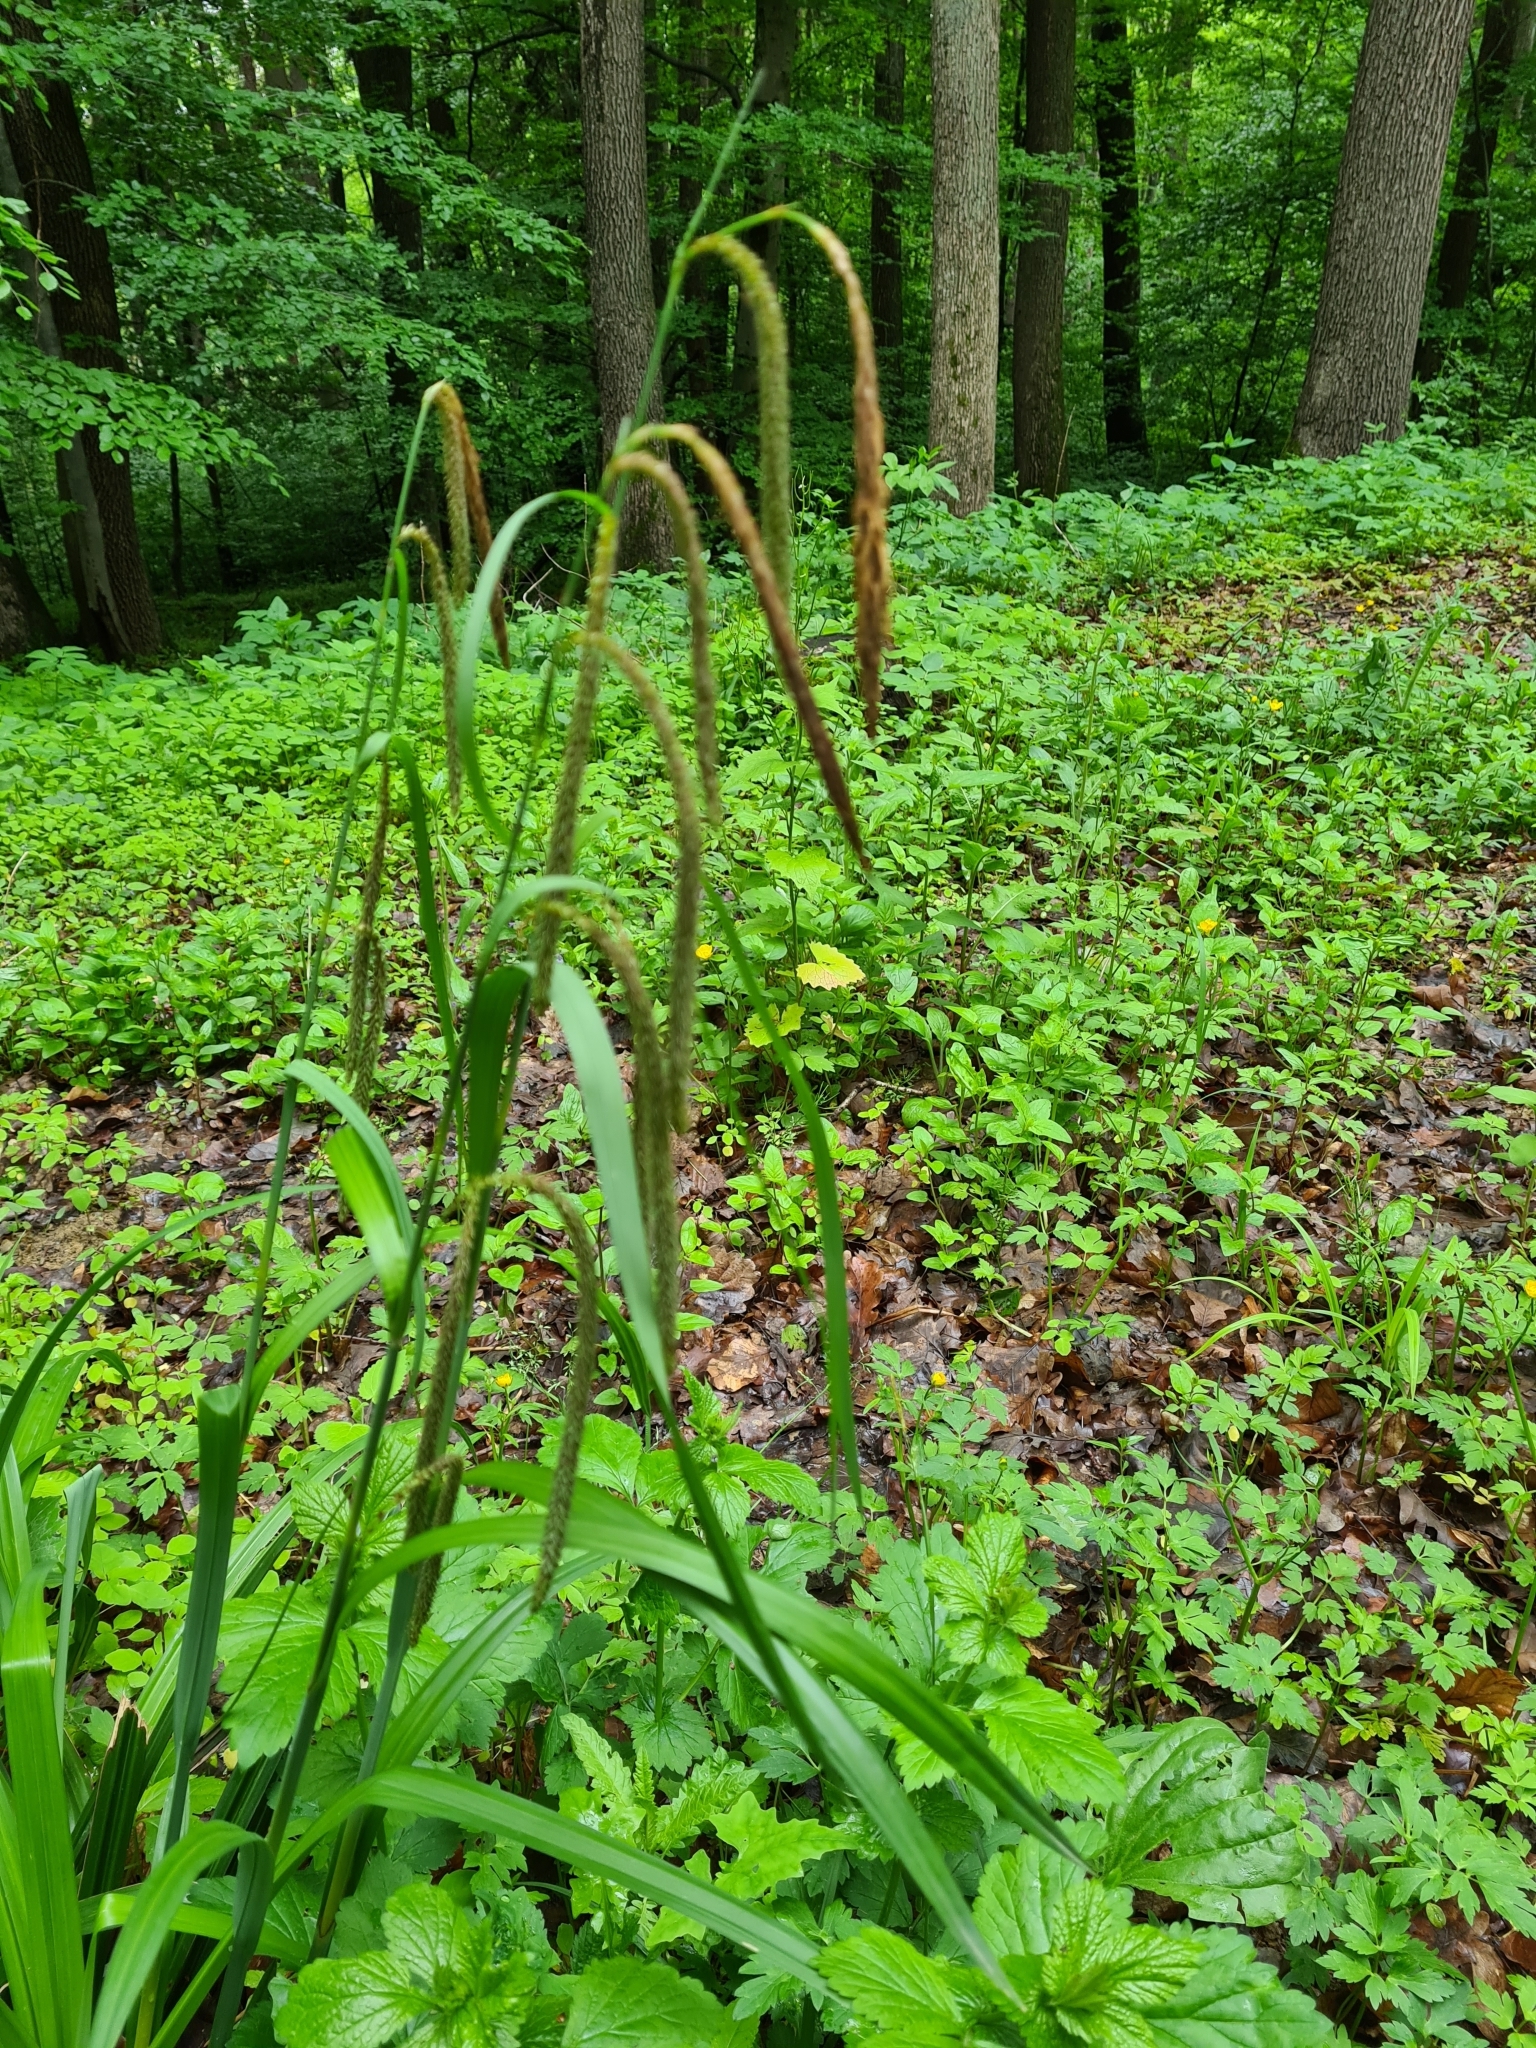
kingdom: Plantae
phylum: Tracheophyta
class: Liliopsida
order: Poales
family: Cyperaceae
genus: Carex
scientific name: Carex pendula
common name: Pendulous sedge
